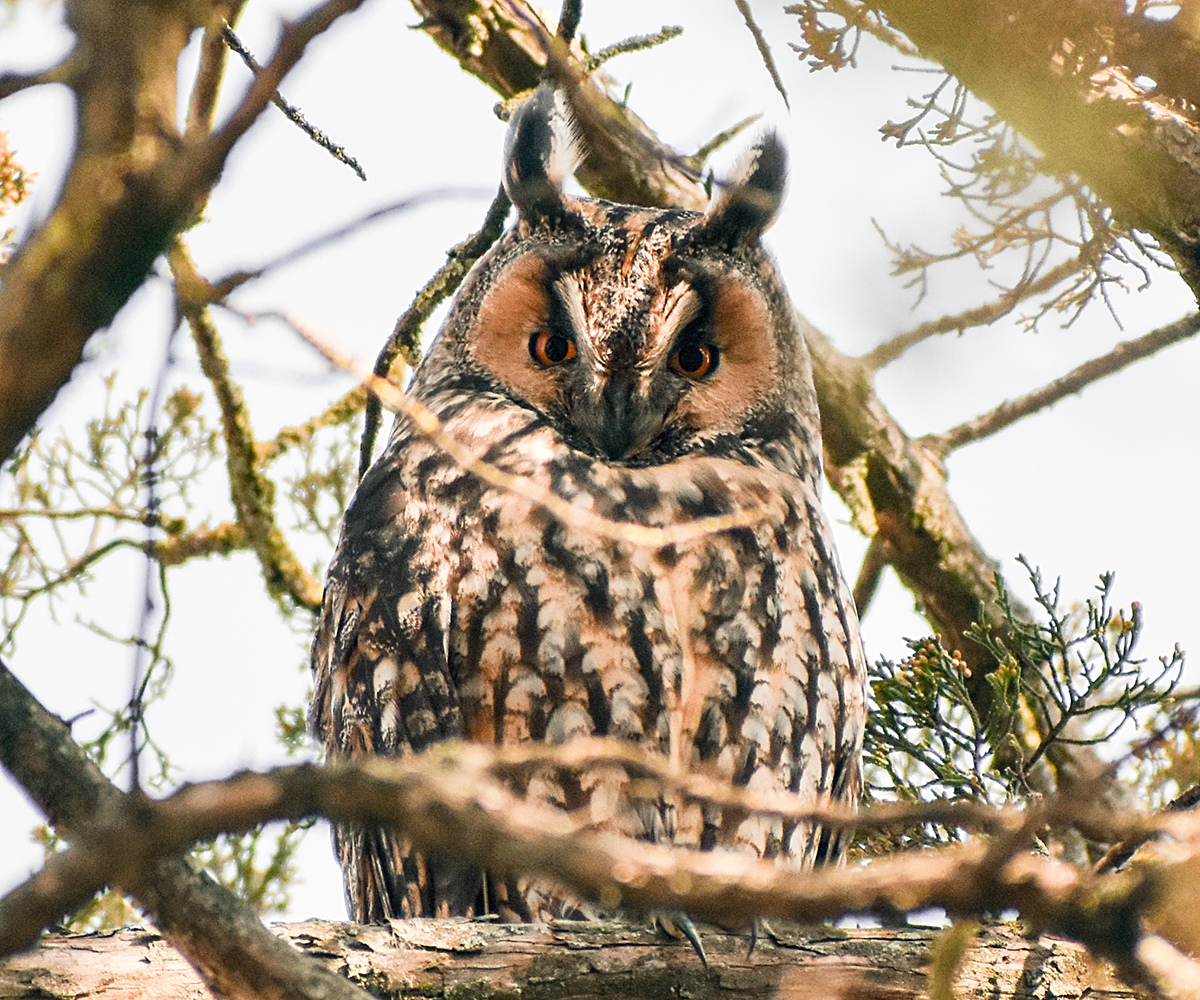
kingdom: Animalia
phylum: Chordata
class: Aves
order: Strigiformes
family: Strigidae
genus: Asio
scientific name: Asio otus
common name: Long-eared owl
